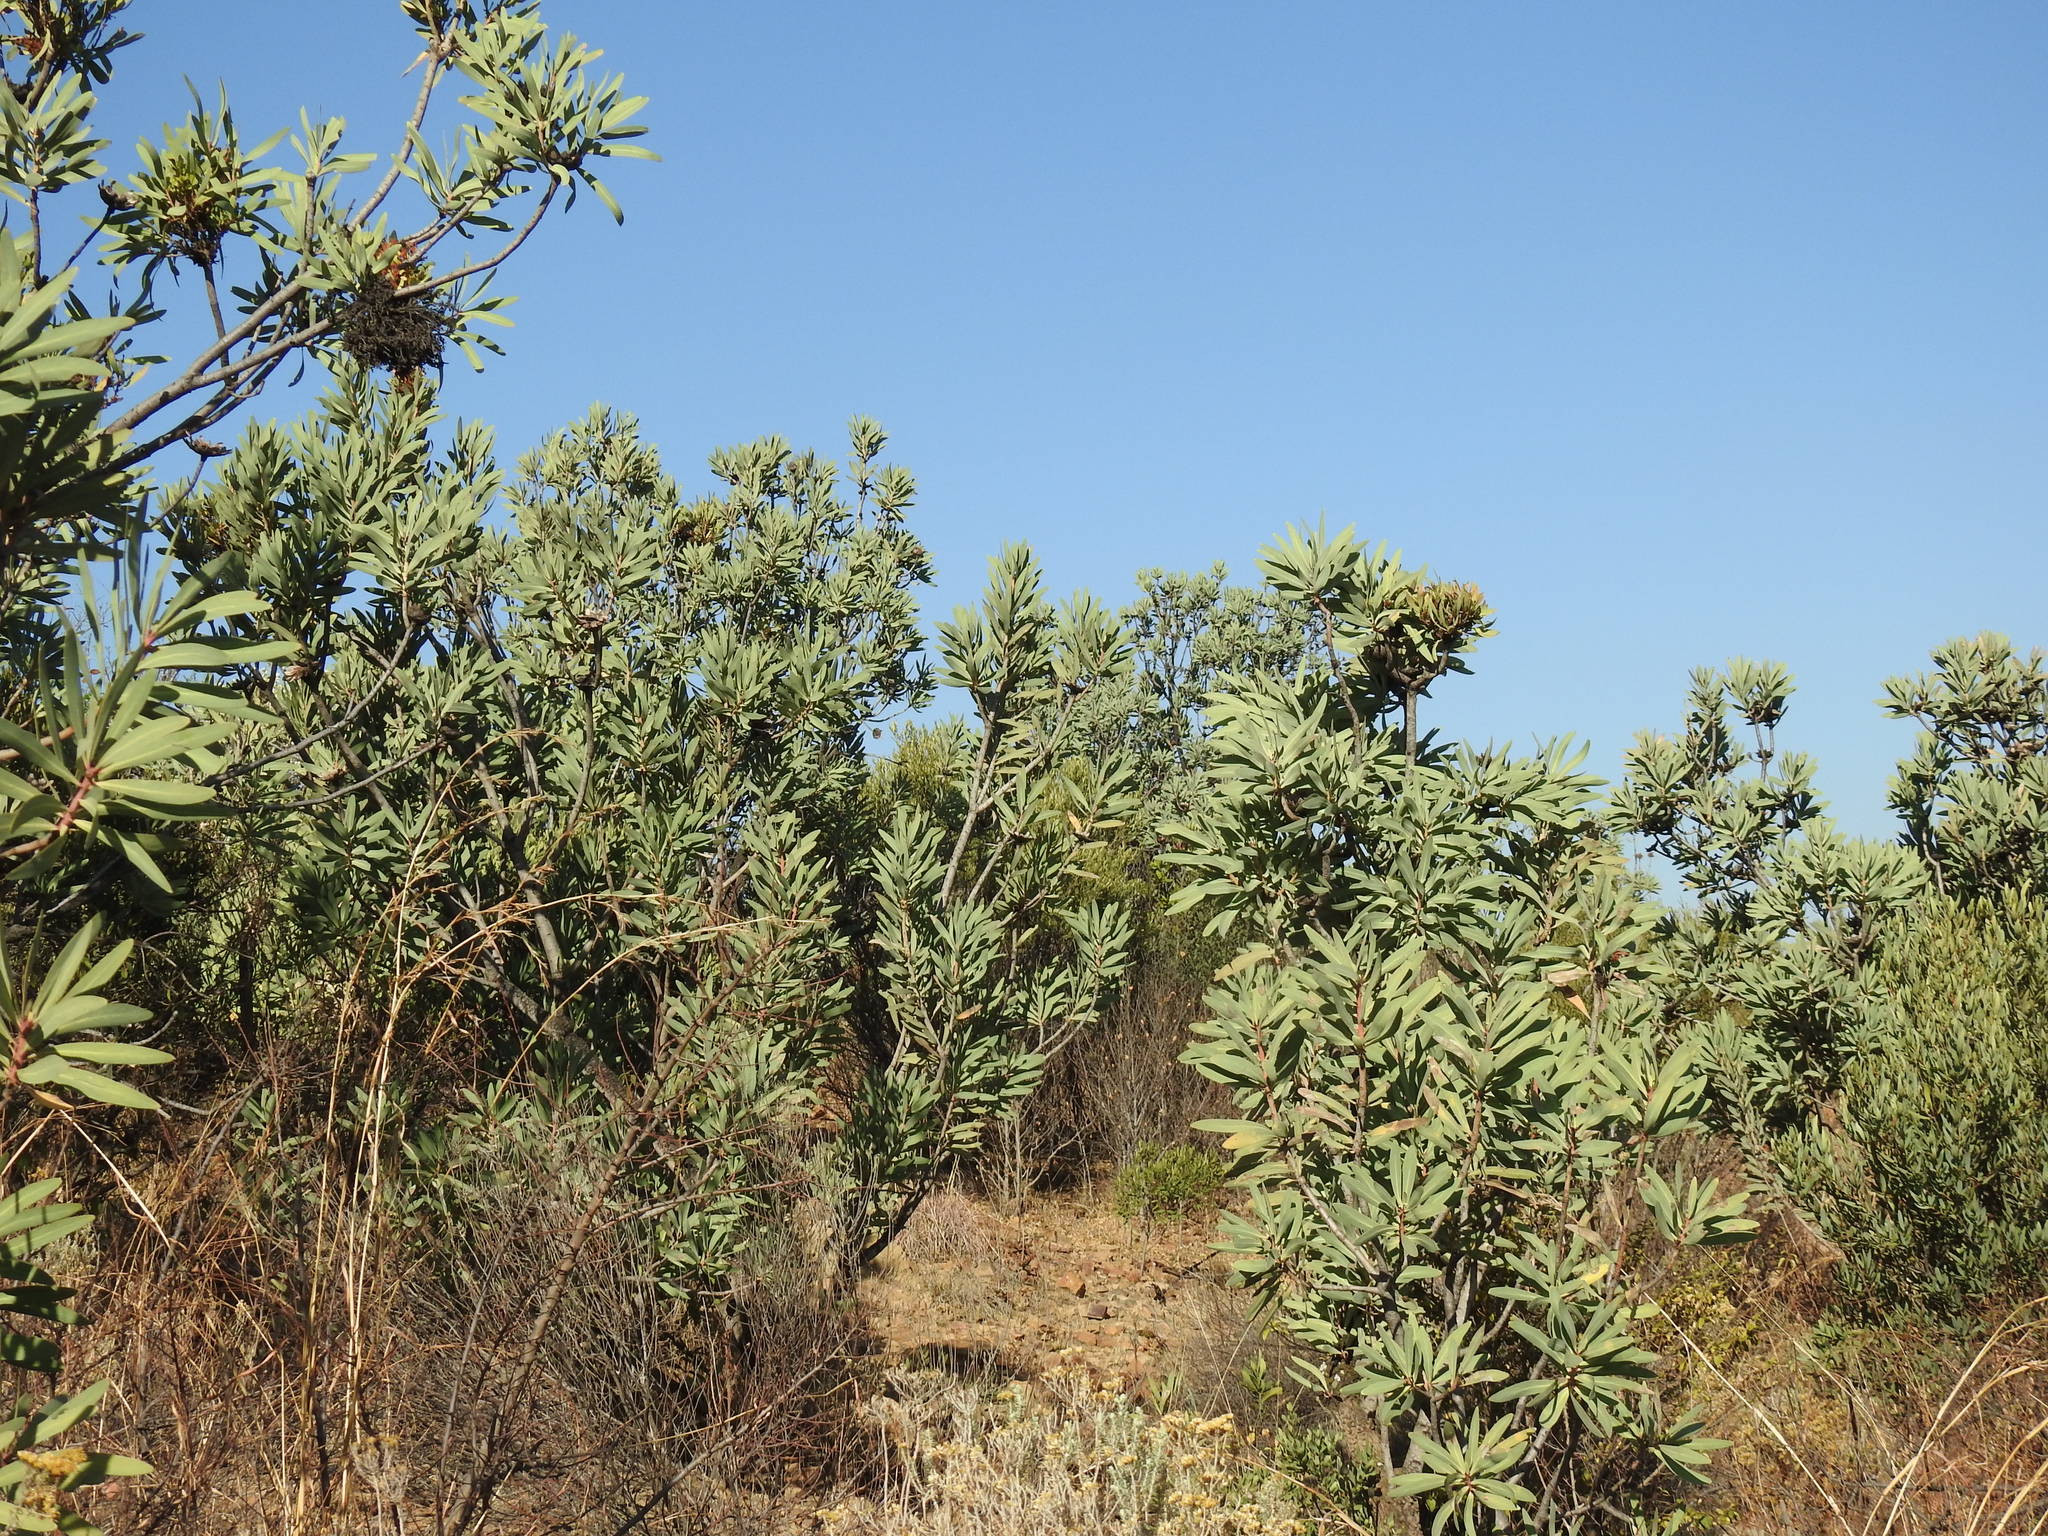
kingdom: Plantae
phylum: Tracheophyta
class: Magnoliopsida
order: Proteales
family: Proteaceae
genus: Protea
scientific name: Protea caffra
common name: Common sugarbush
